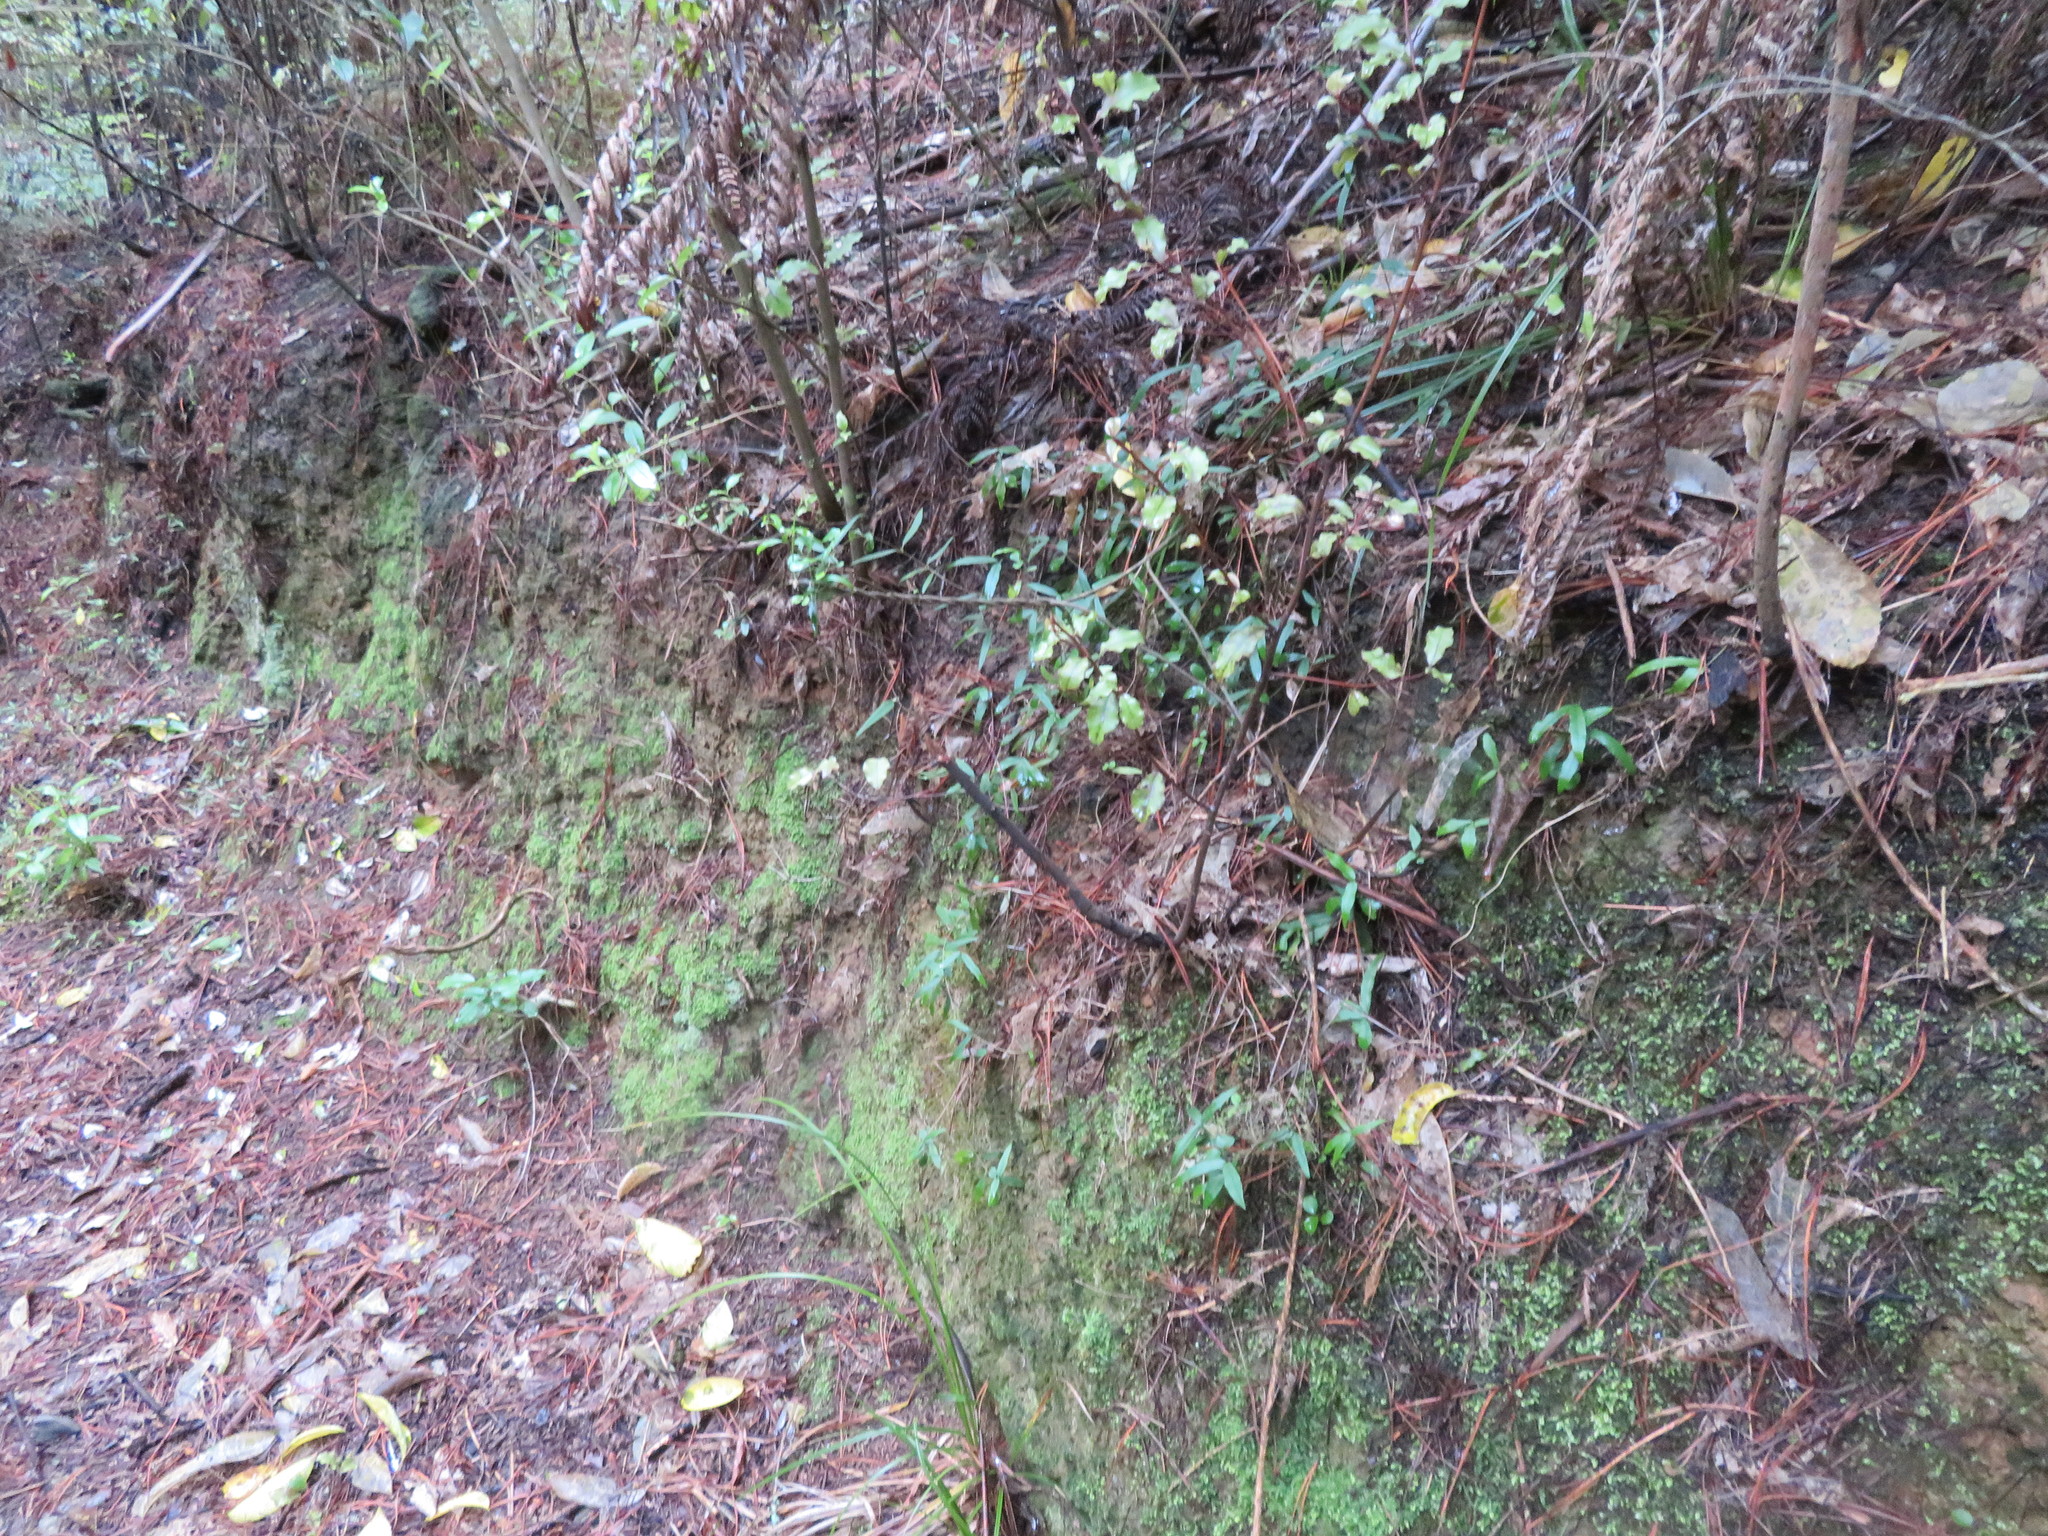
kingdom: Plantae
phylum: Tracheophyta
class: Magnoliopsida
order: Ericales
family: Primulaceae
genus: Myrsine
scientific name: Myrsine australis
